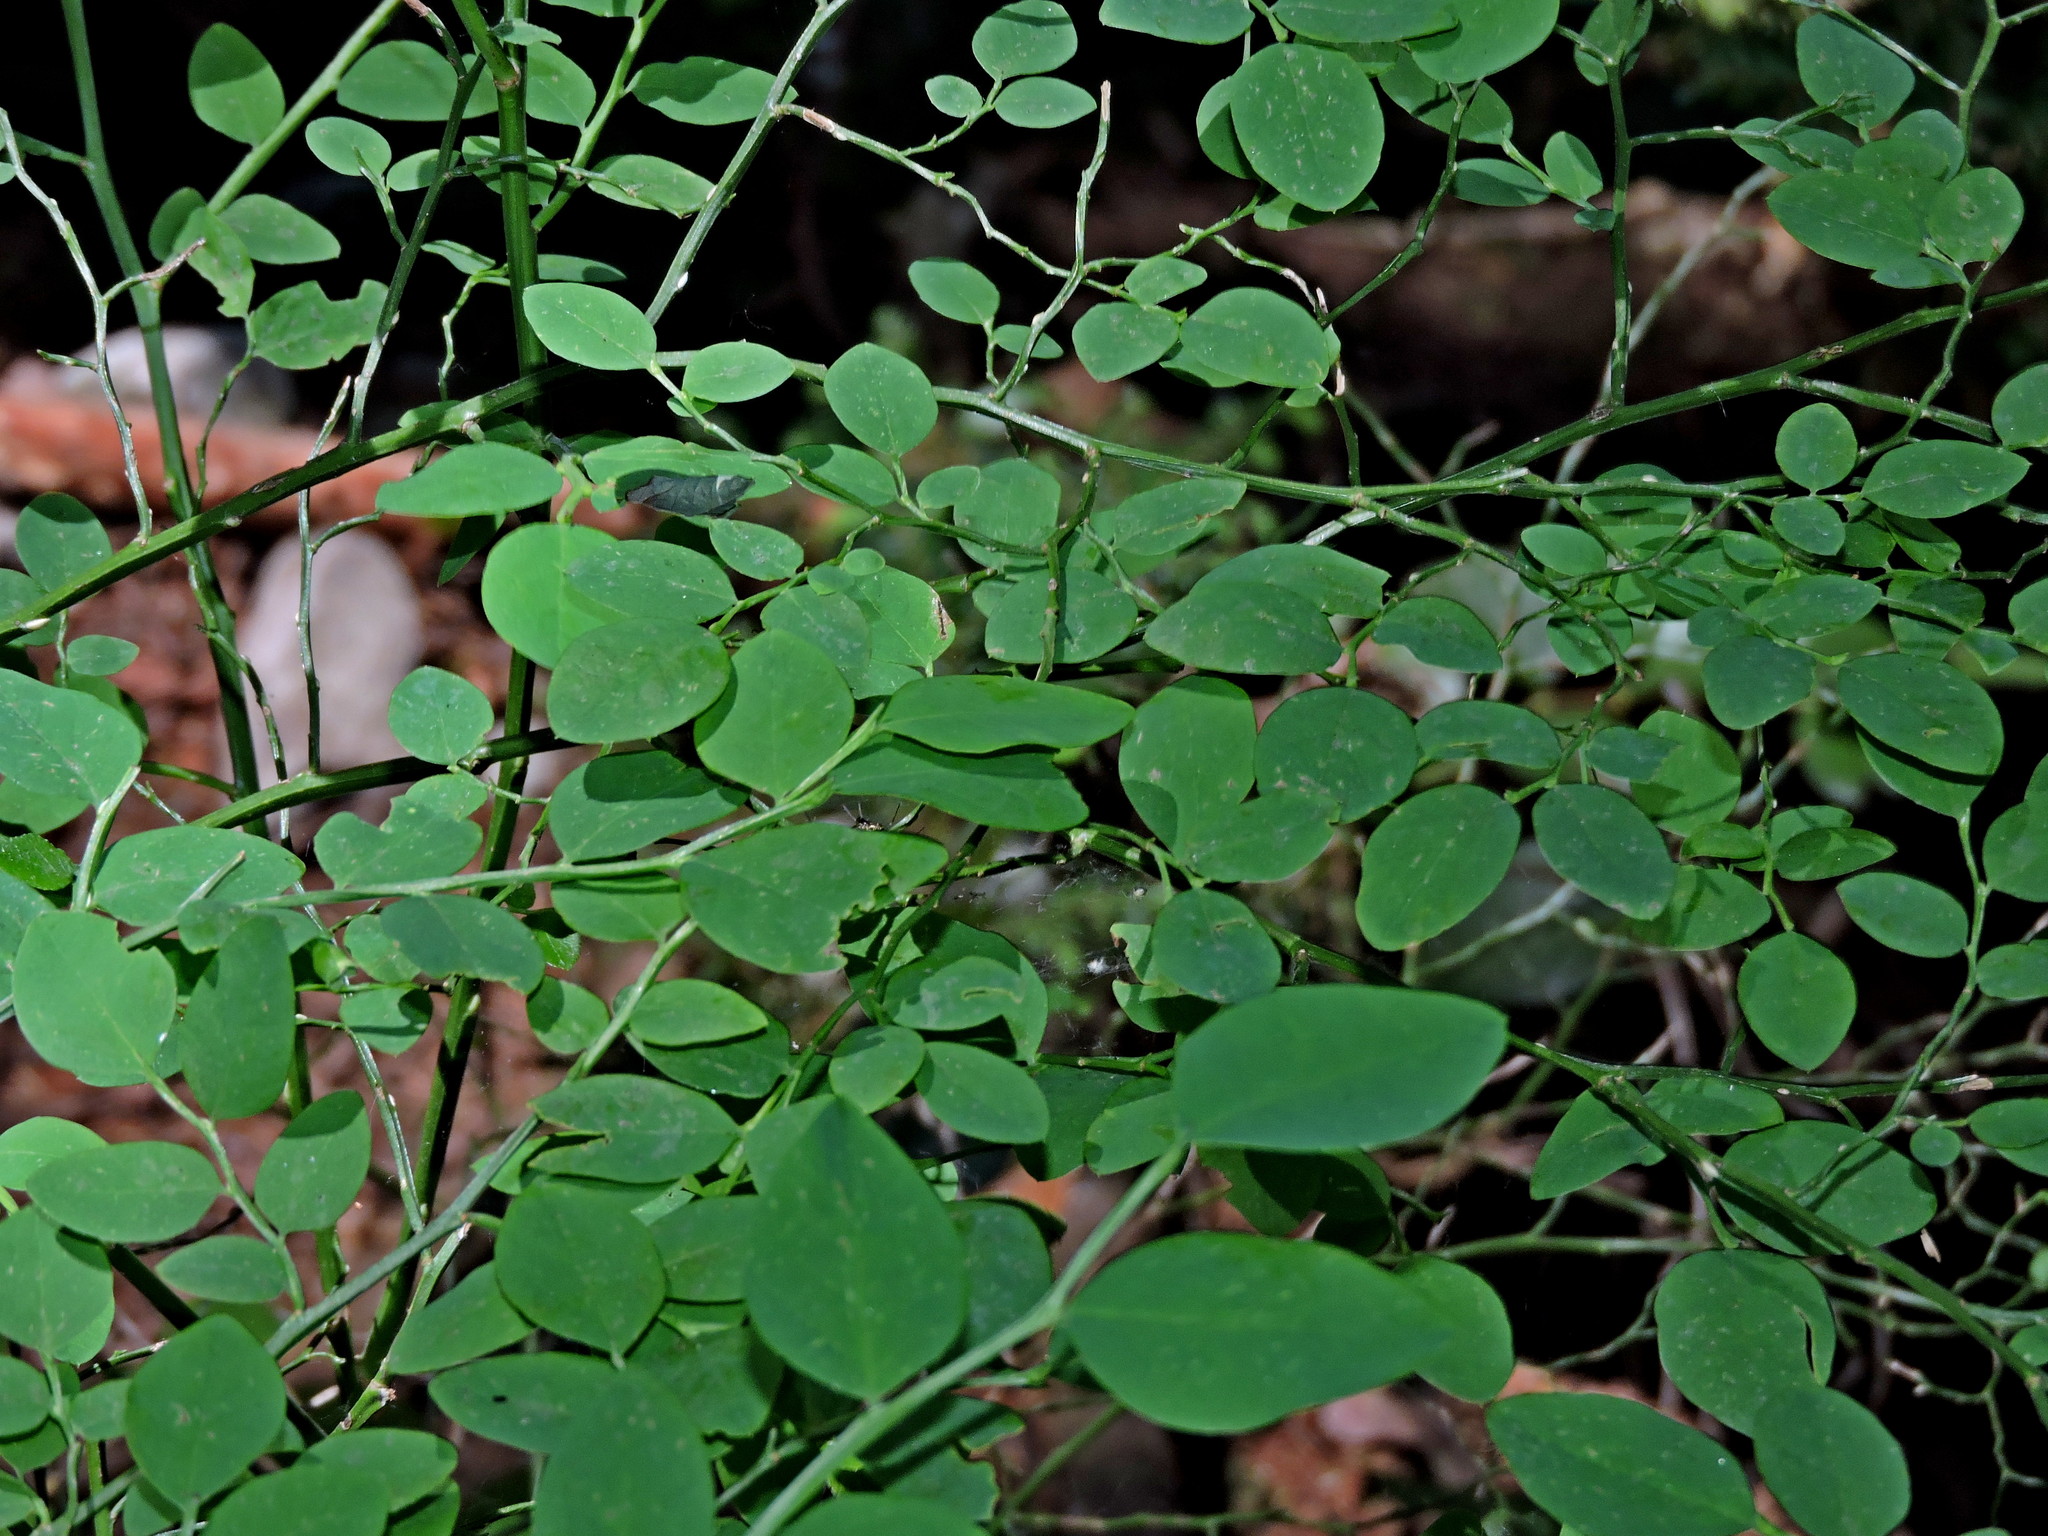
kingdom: Plantae
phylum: Tracheophyta
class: Magnoliopsida
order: Ericales
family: Ericaceae
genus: Vaccinium
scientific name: Vaccinium parvifolium
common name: Red-huckleberry
